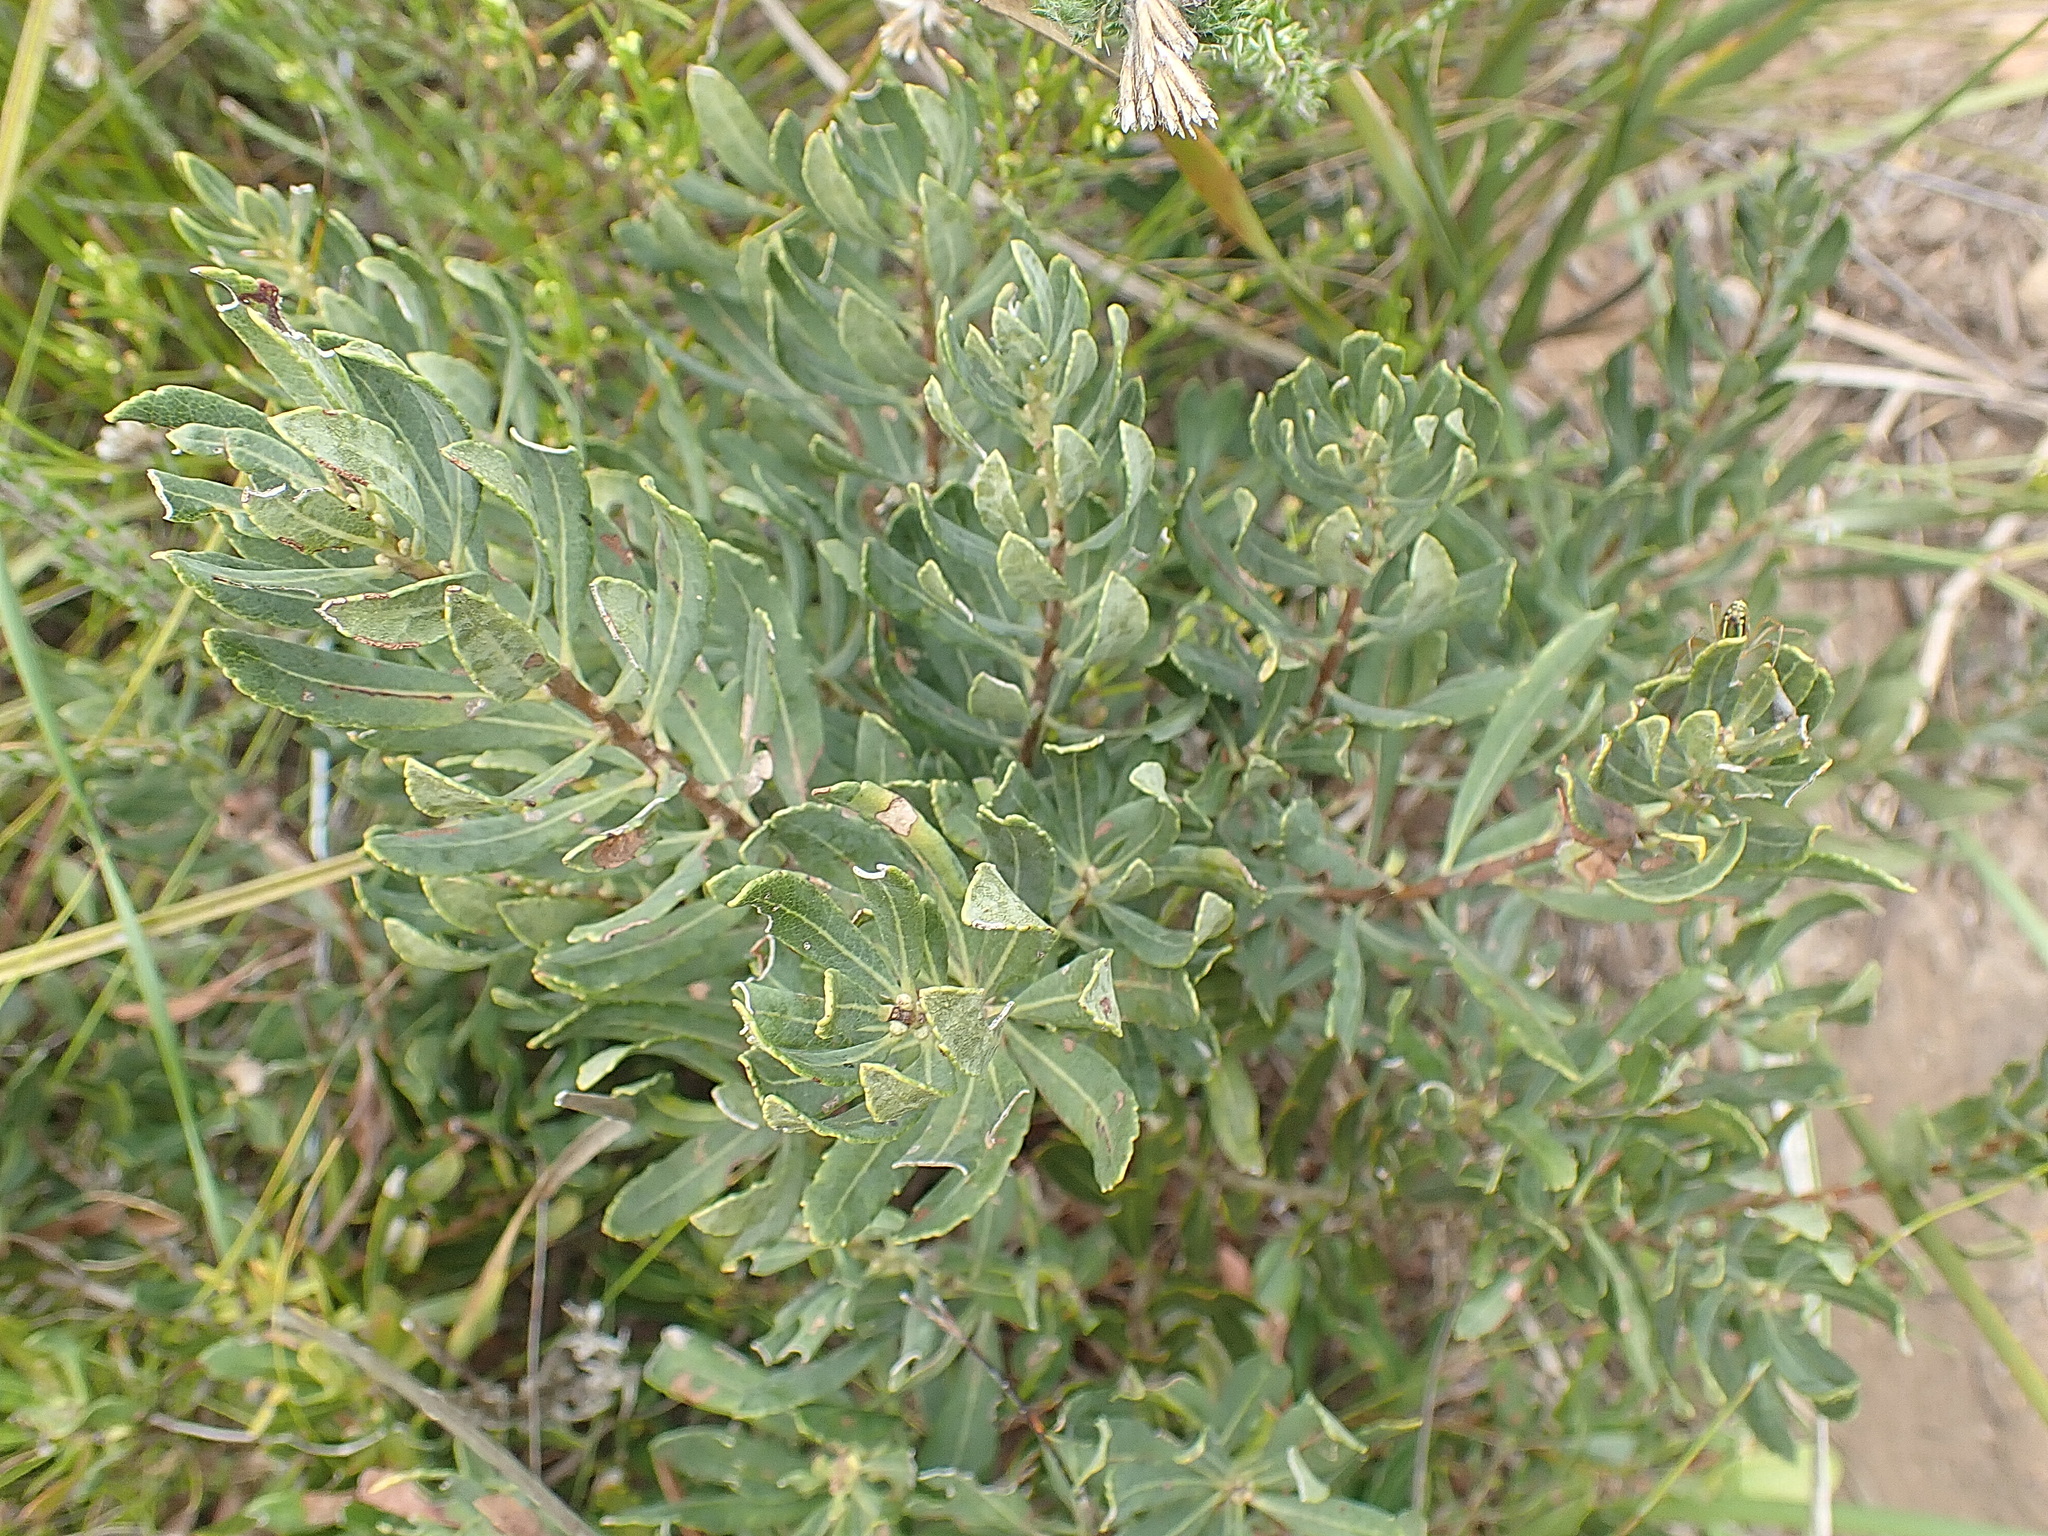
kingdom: Plantae
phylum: Tracheophyta
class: Magnoliopsida
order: Fagales
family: Myricaceae
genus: Morella
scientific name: Morella humilis
